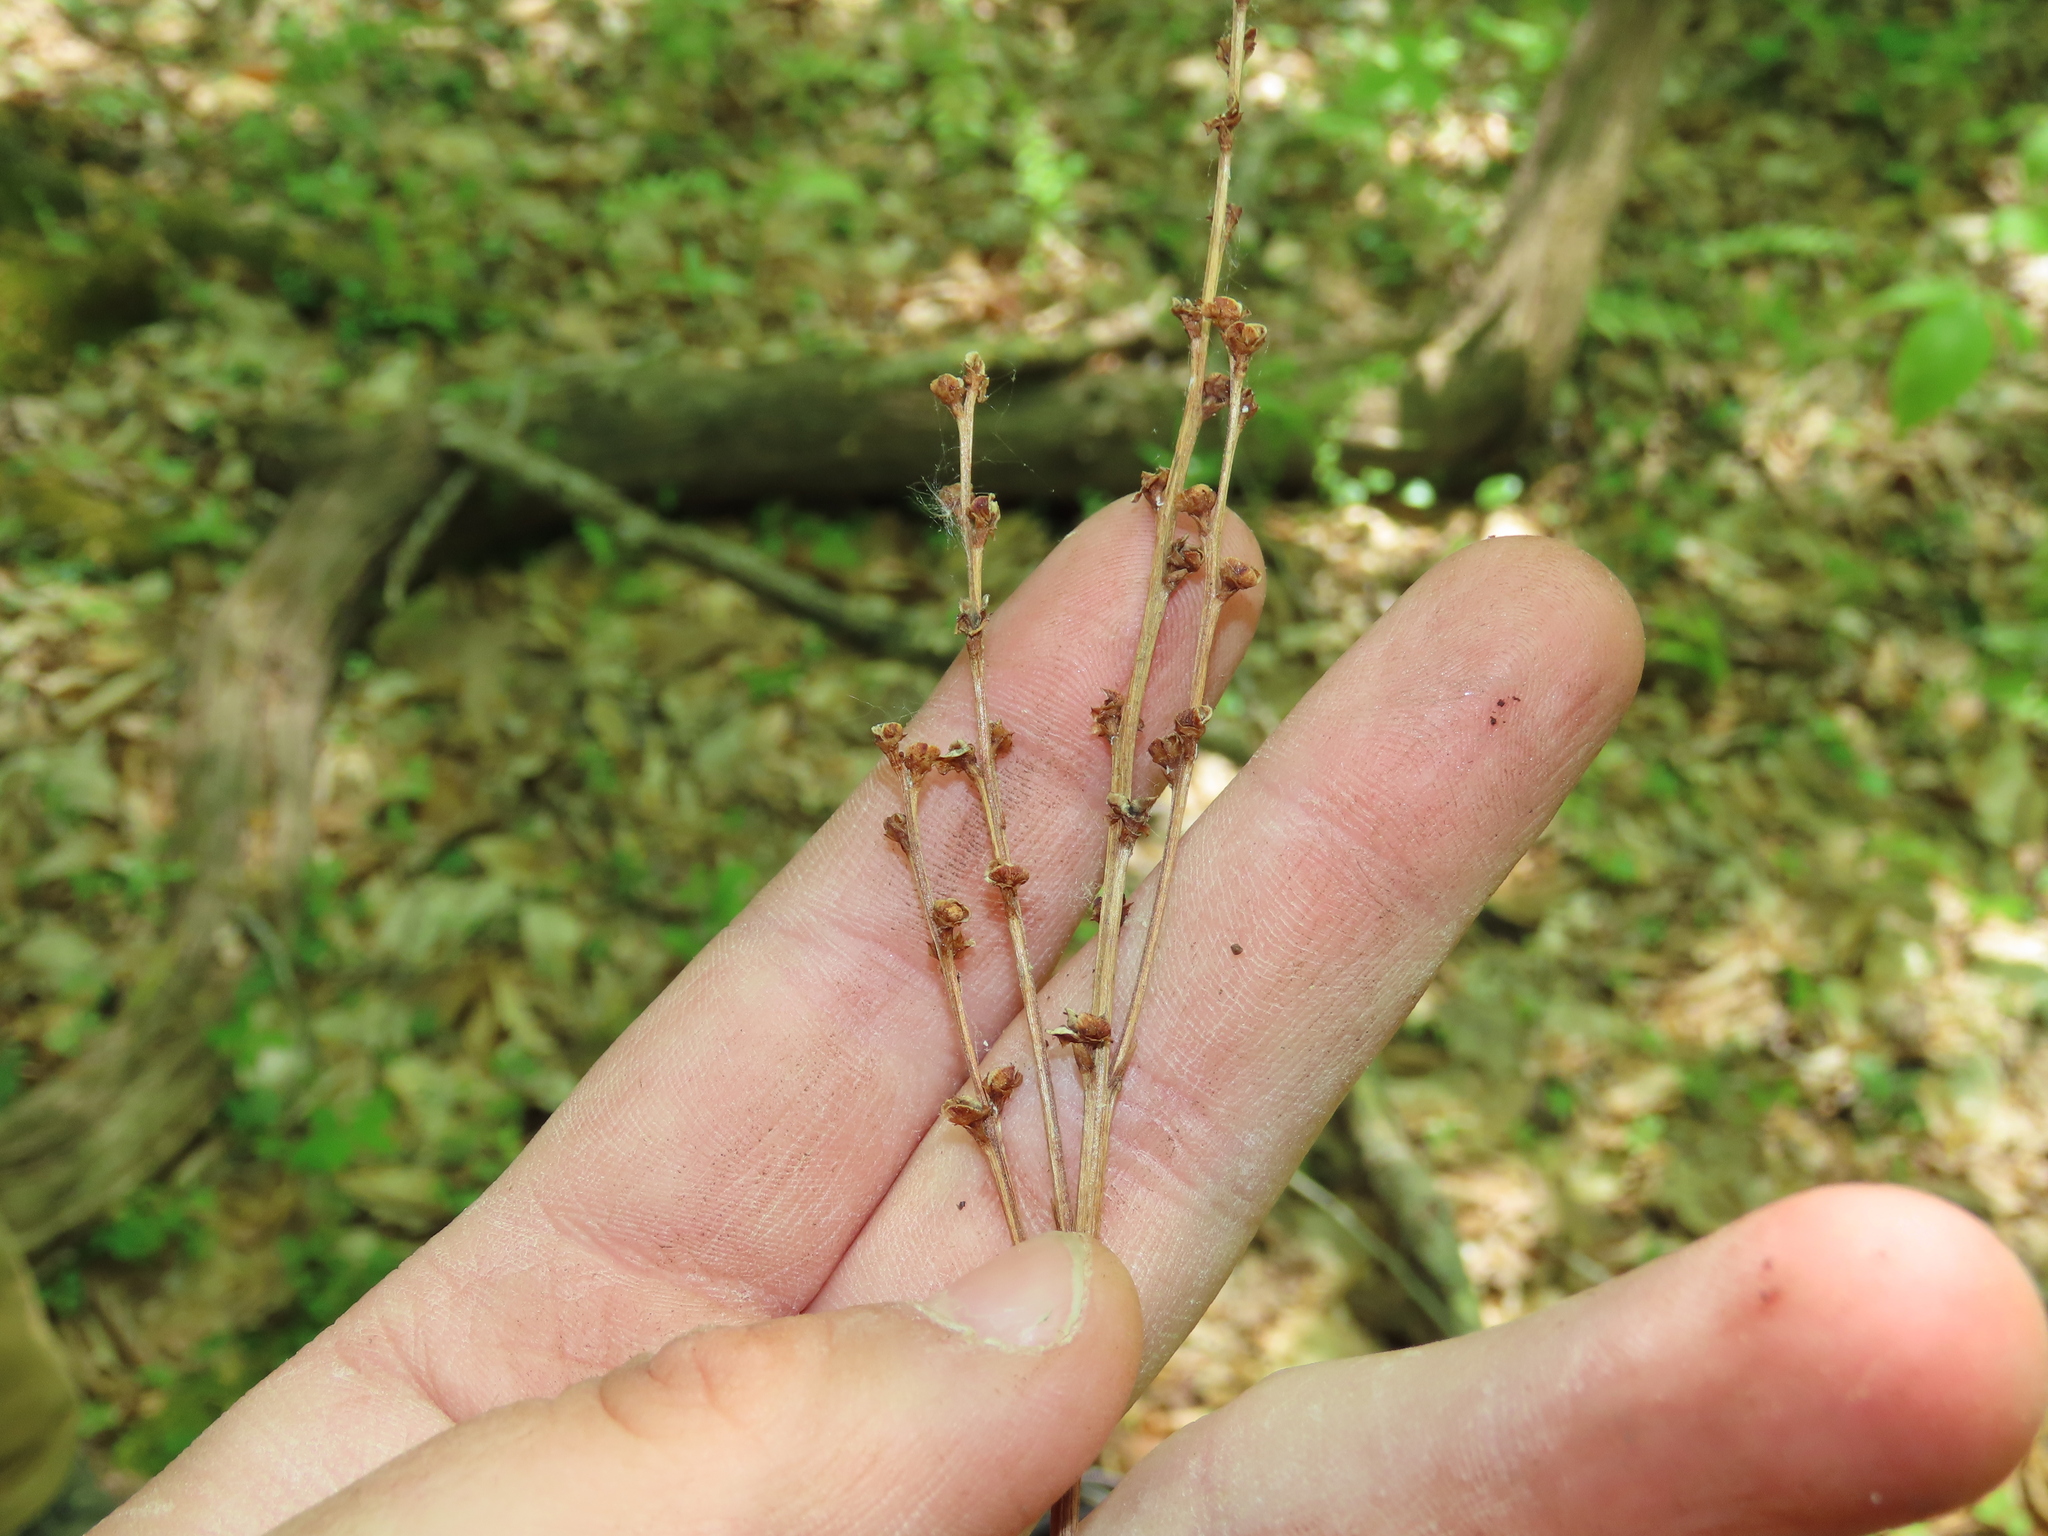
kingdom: Plantae
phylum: Tracheophyta
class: Magnoliopsida
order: Lamiales
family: Orobanchaceae
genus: Epifagus
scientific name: Epifagus virginiana
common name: Beechdrops
